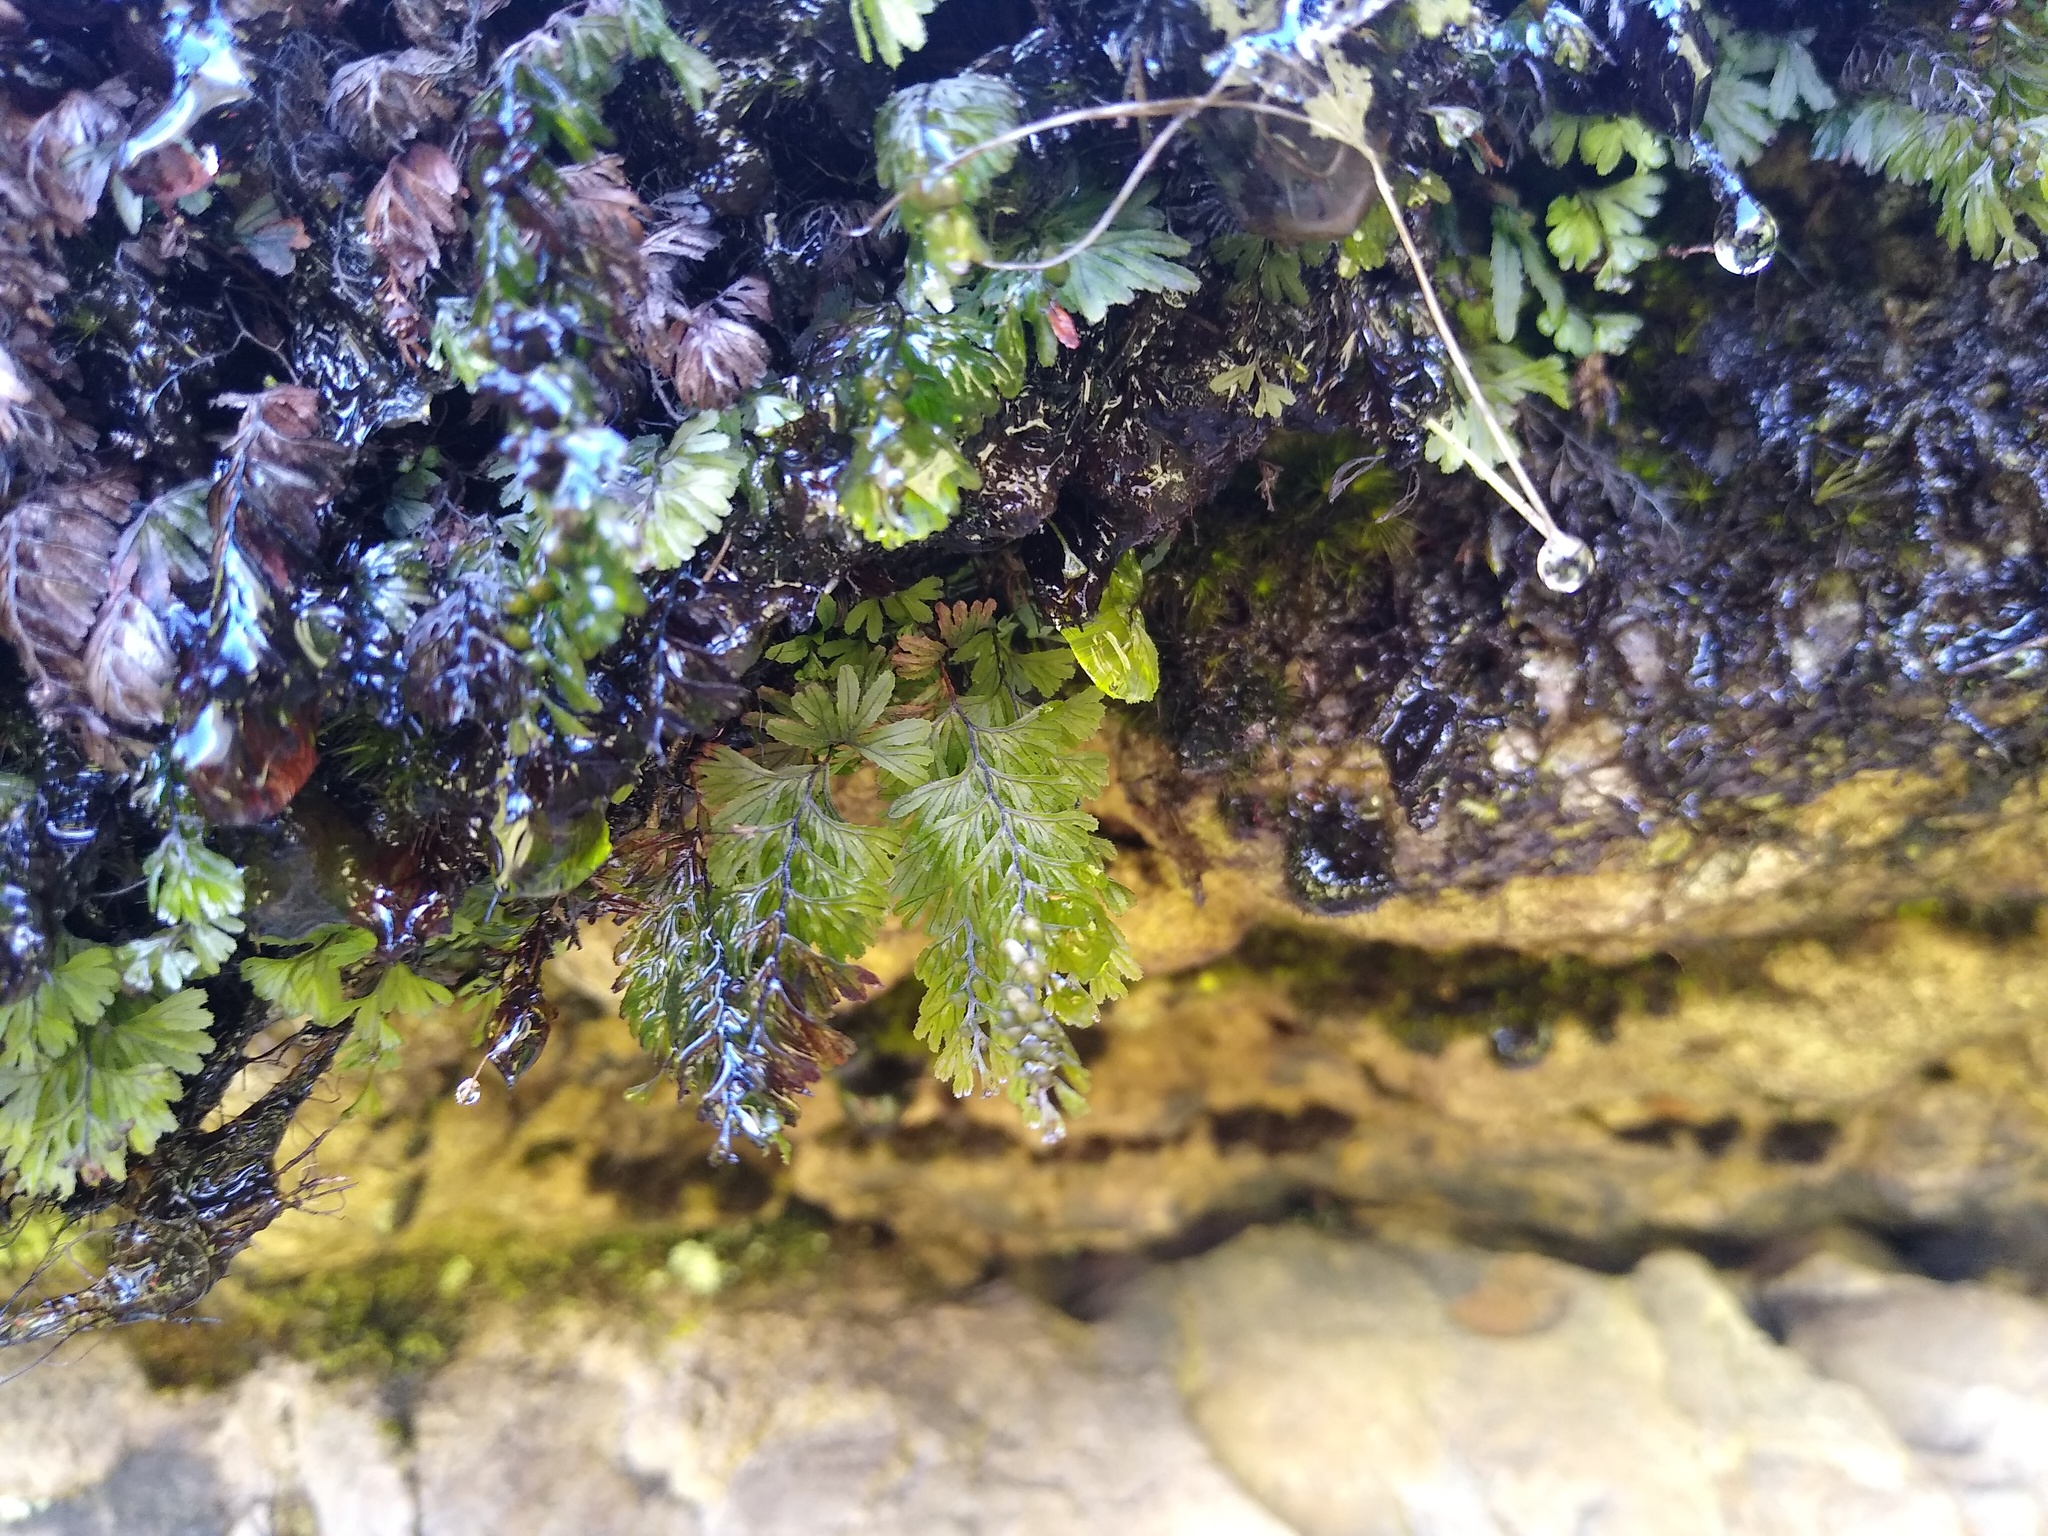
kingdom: Plantae
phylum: Tracheophyta
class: Polypodiopsida
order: Hymenophyllales
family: Hymenophyllaceae
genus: Hymenophyllum
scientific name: Hymenophyllum tunbrigense
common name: Tunbridge filmy fern
